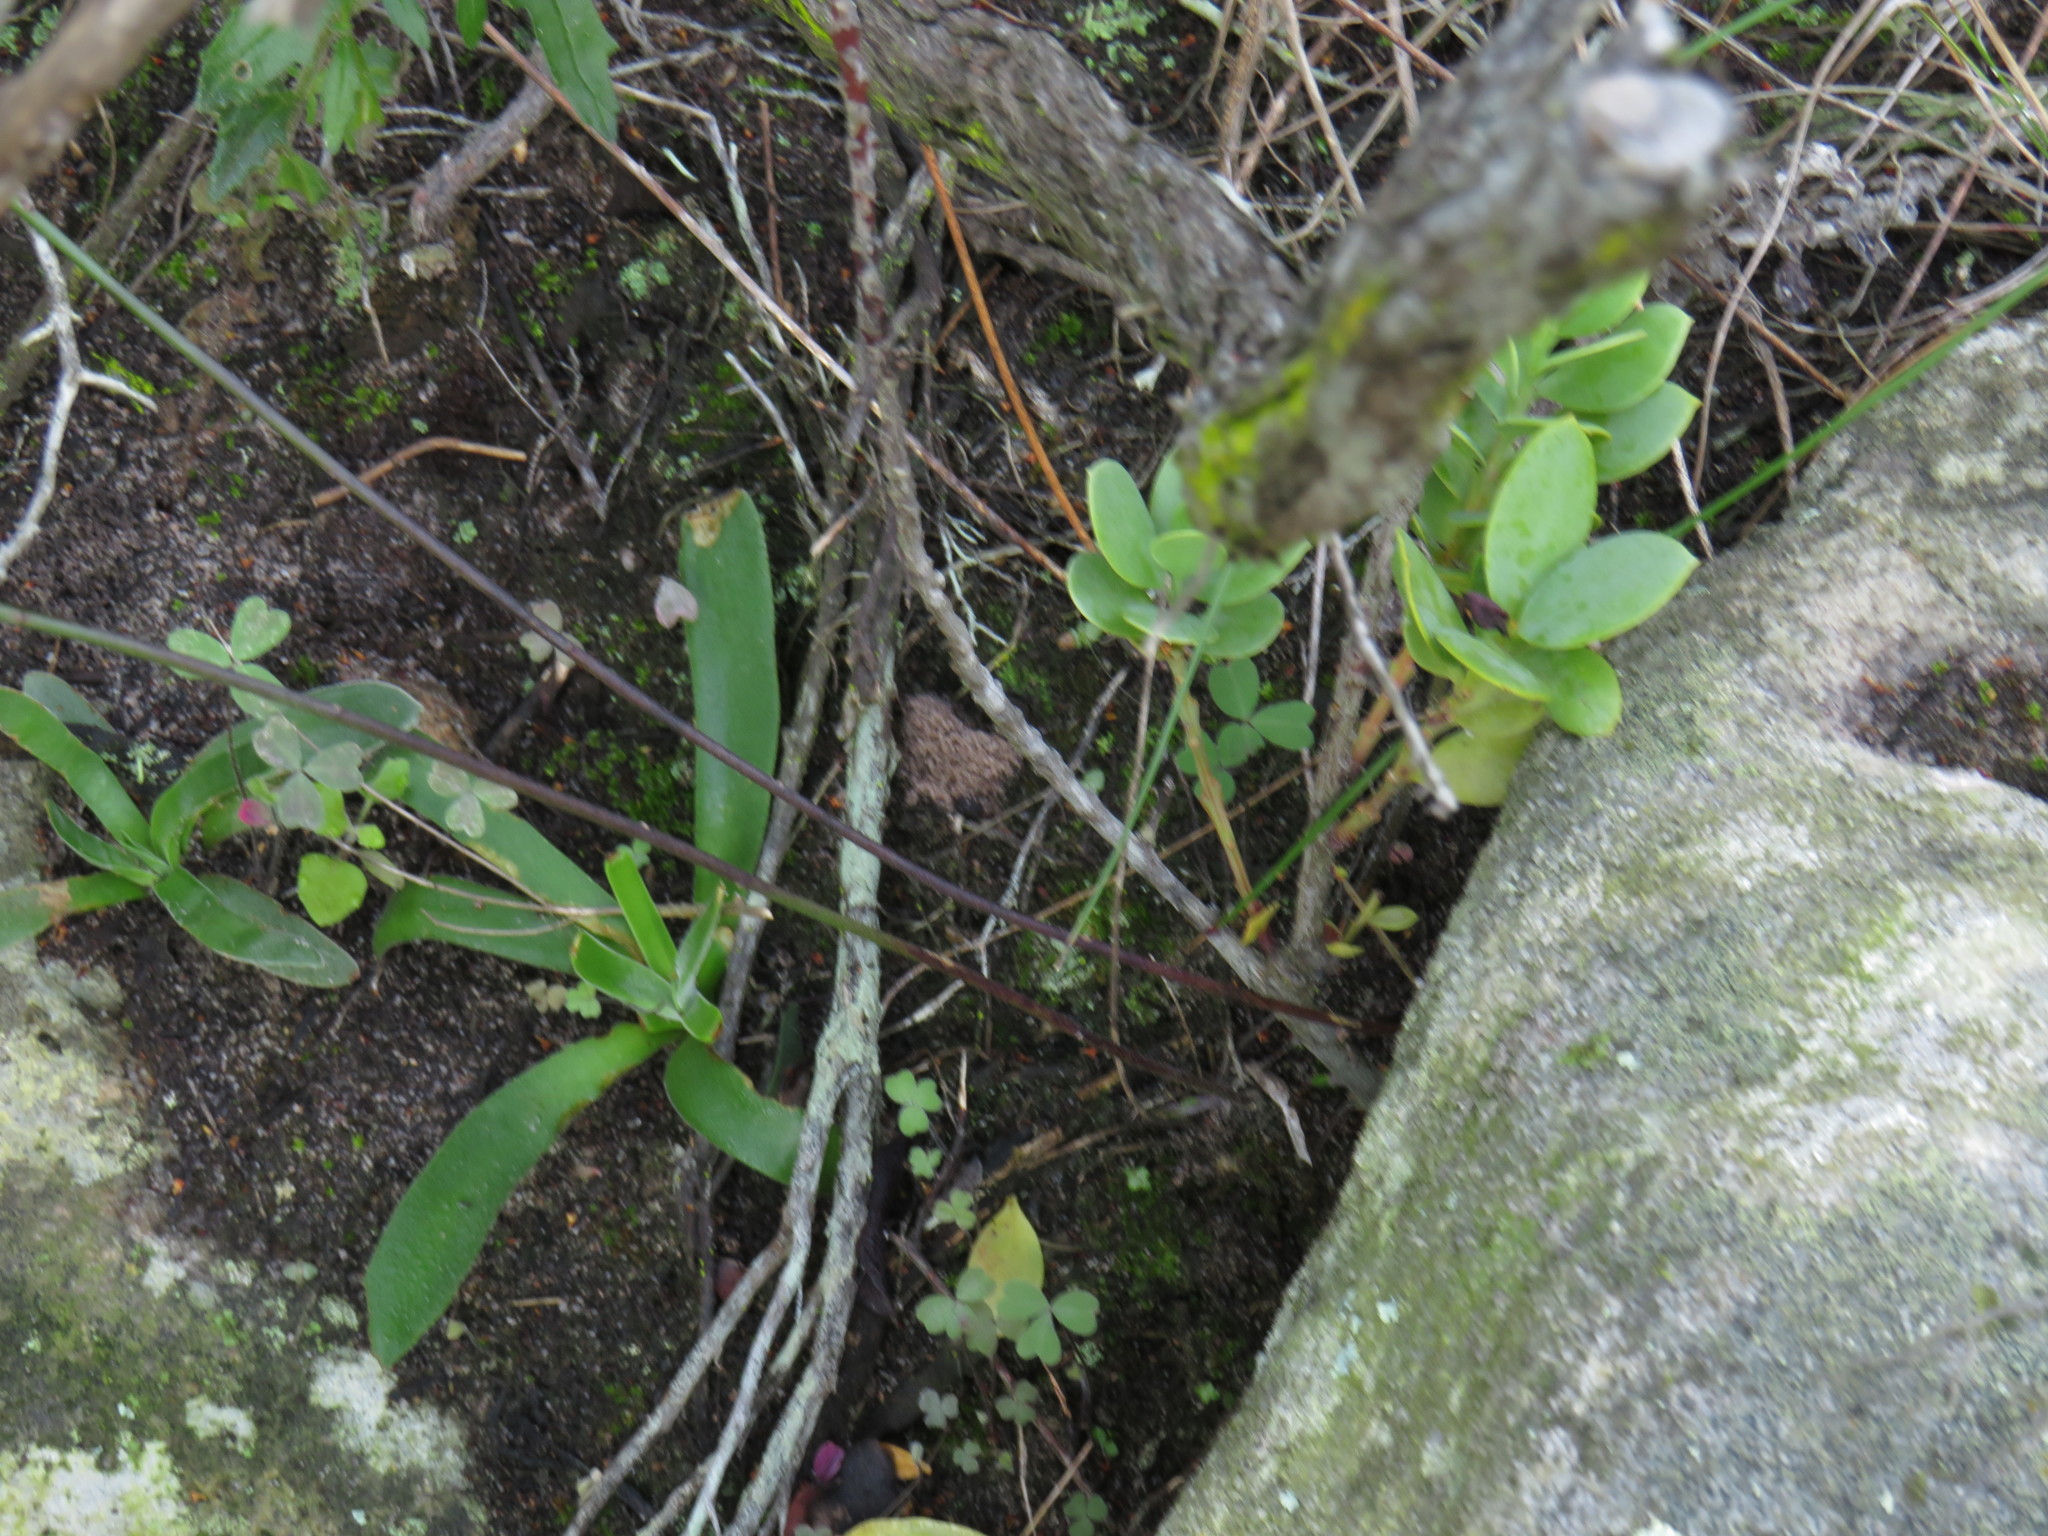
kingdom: Plantae
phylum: Tracheophyta
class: Magnoliopsida
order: Saxifragales
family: Crassulaceae
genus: Crassula
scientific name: Crassula nudicaulis
